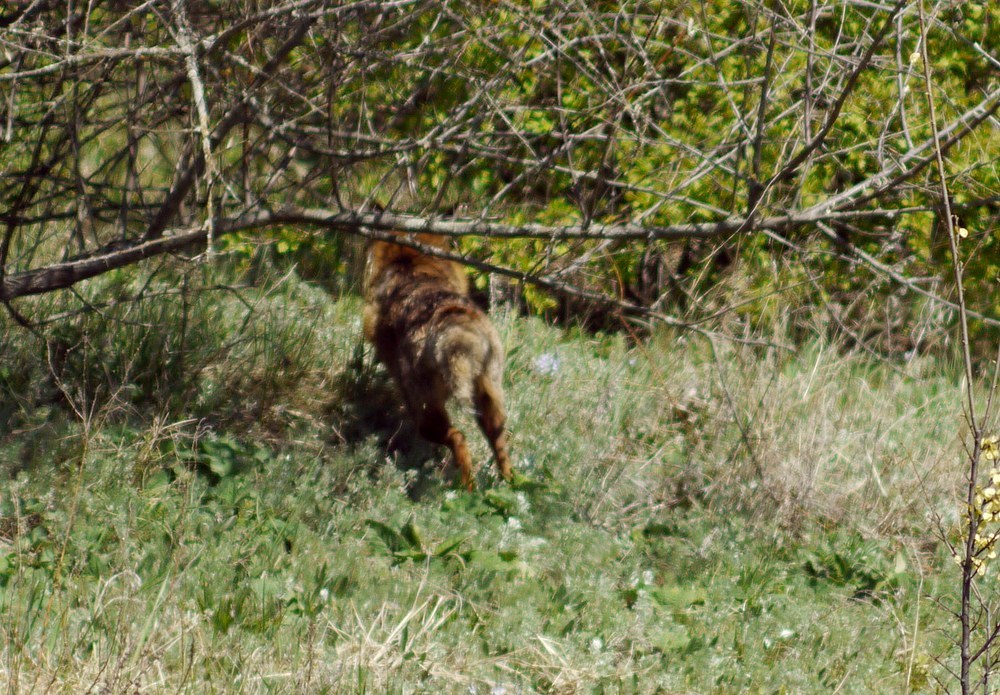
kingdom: Animalia
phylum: Chordata
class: Mammalia
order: Carnivora
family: Canidae
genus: Canis
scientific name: Canis aureus
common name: Golden jackal
